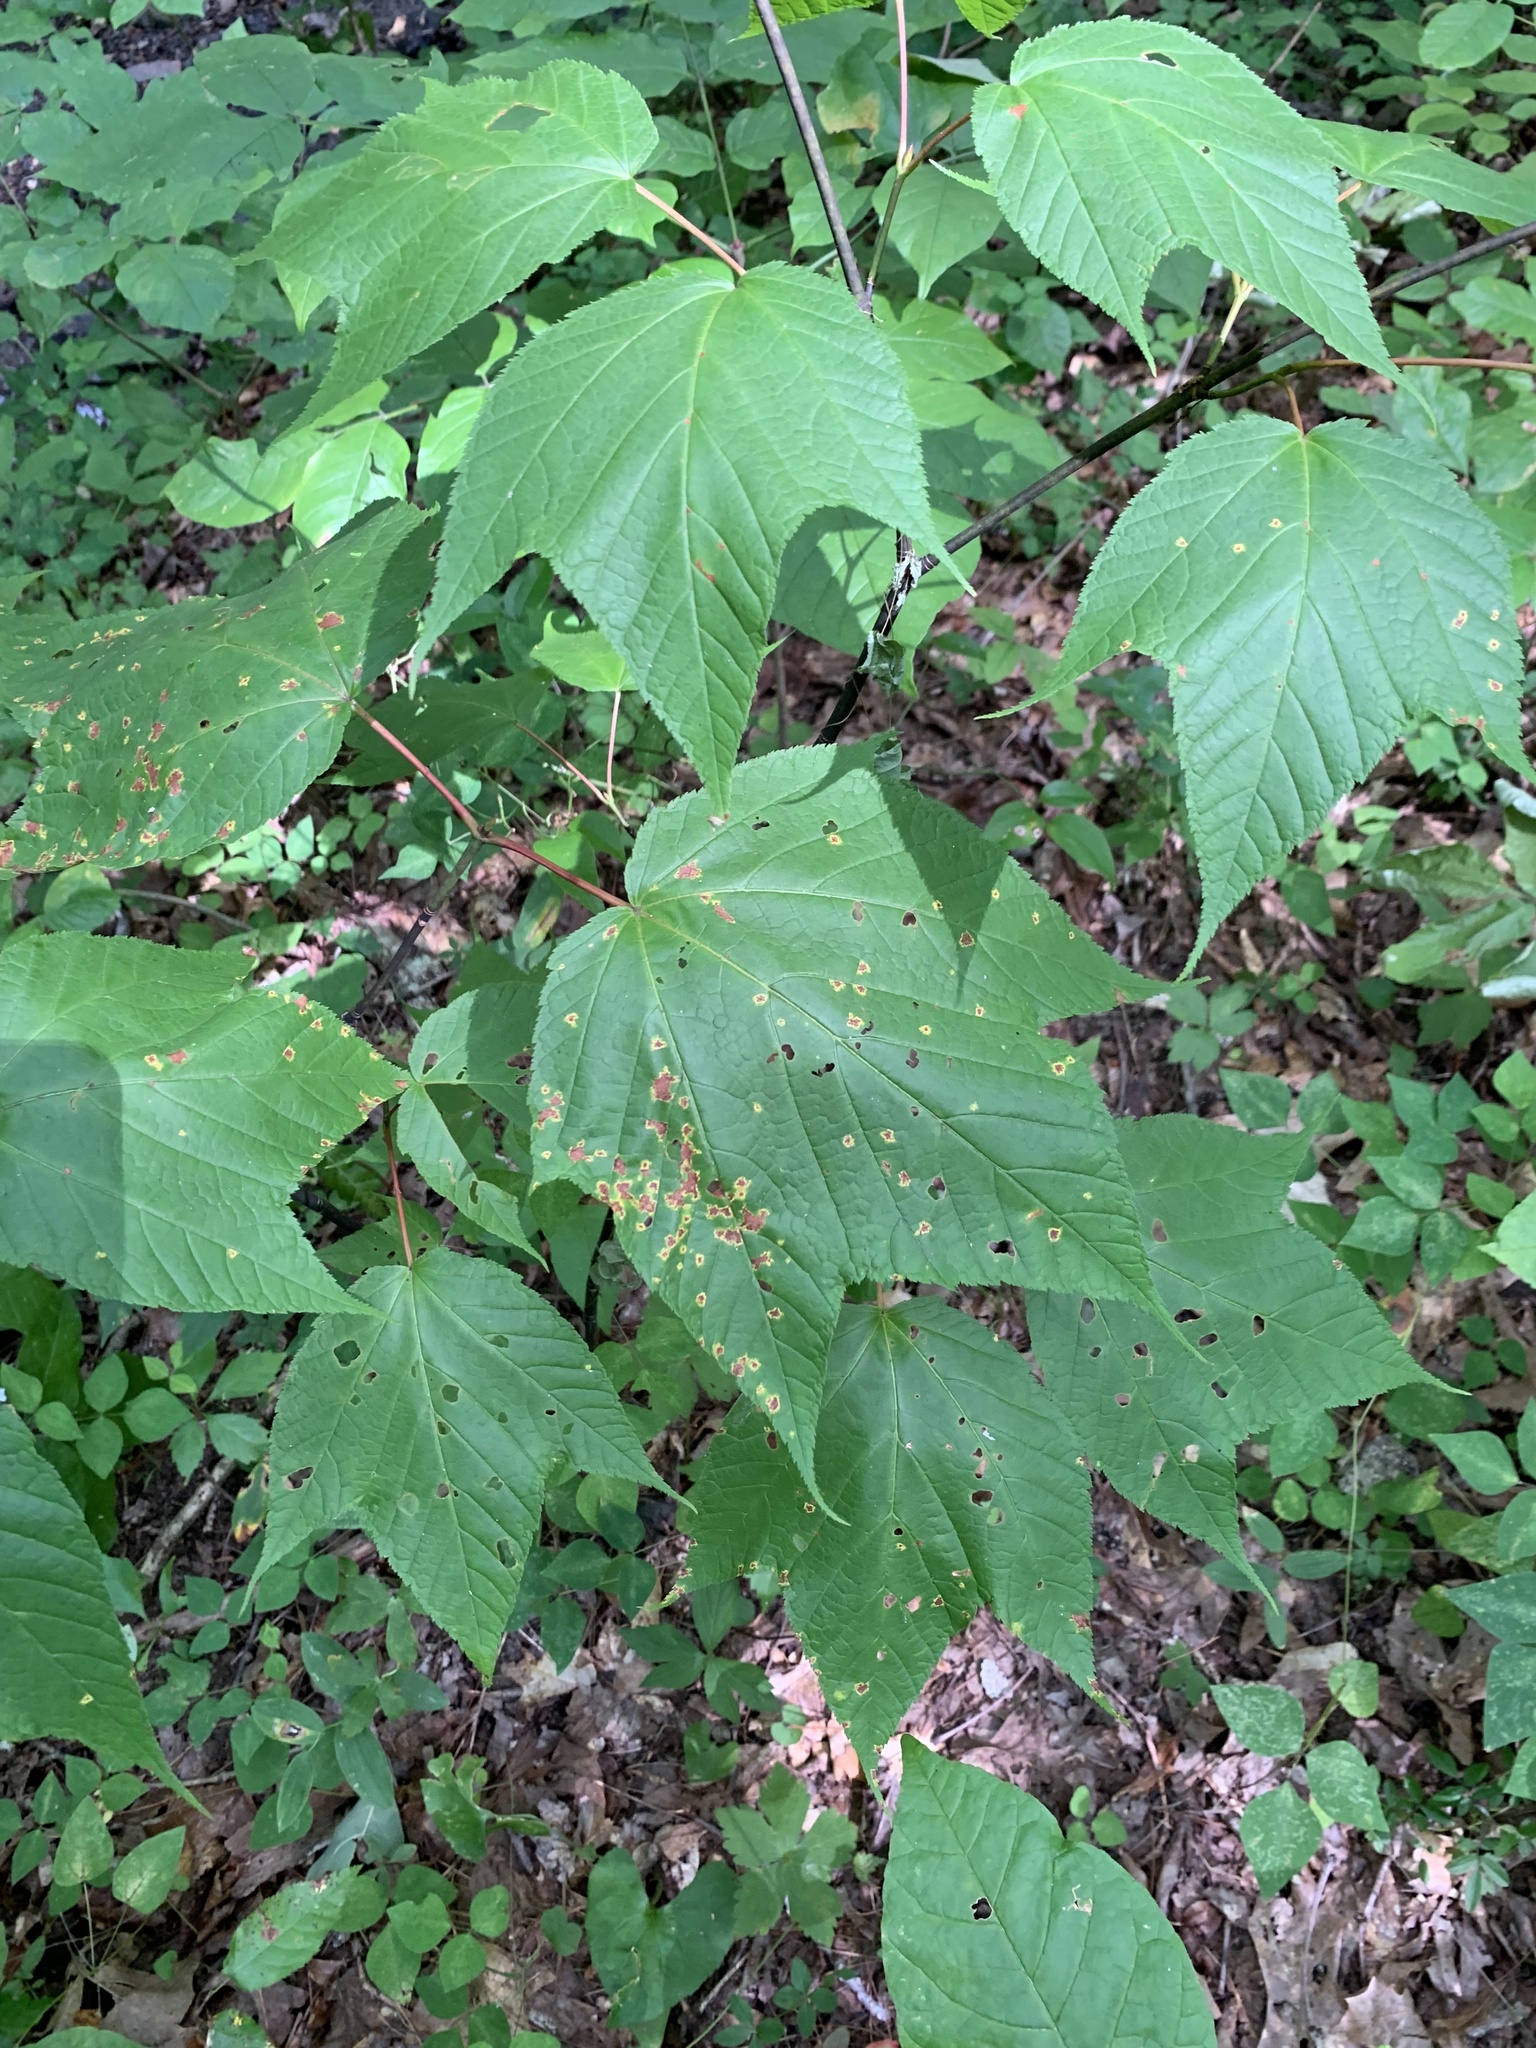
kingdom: Plantae
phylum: Tracheophyta
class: Magnoliopsida
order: Sapindales
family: Sapindaceae
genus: Acer
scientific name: Acer pensylvanicum
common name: Moosewood
